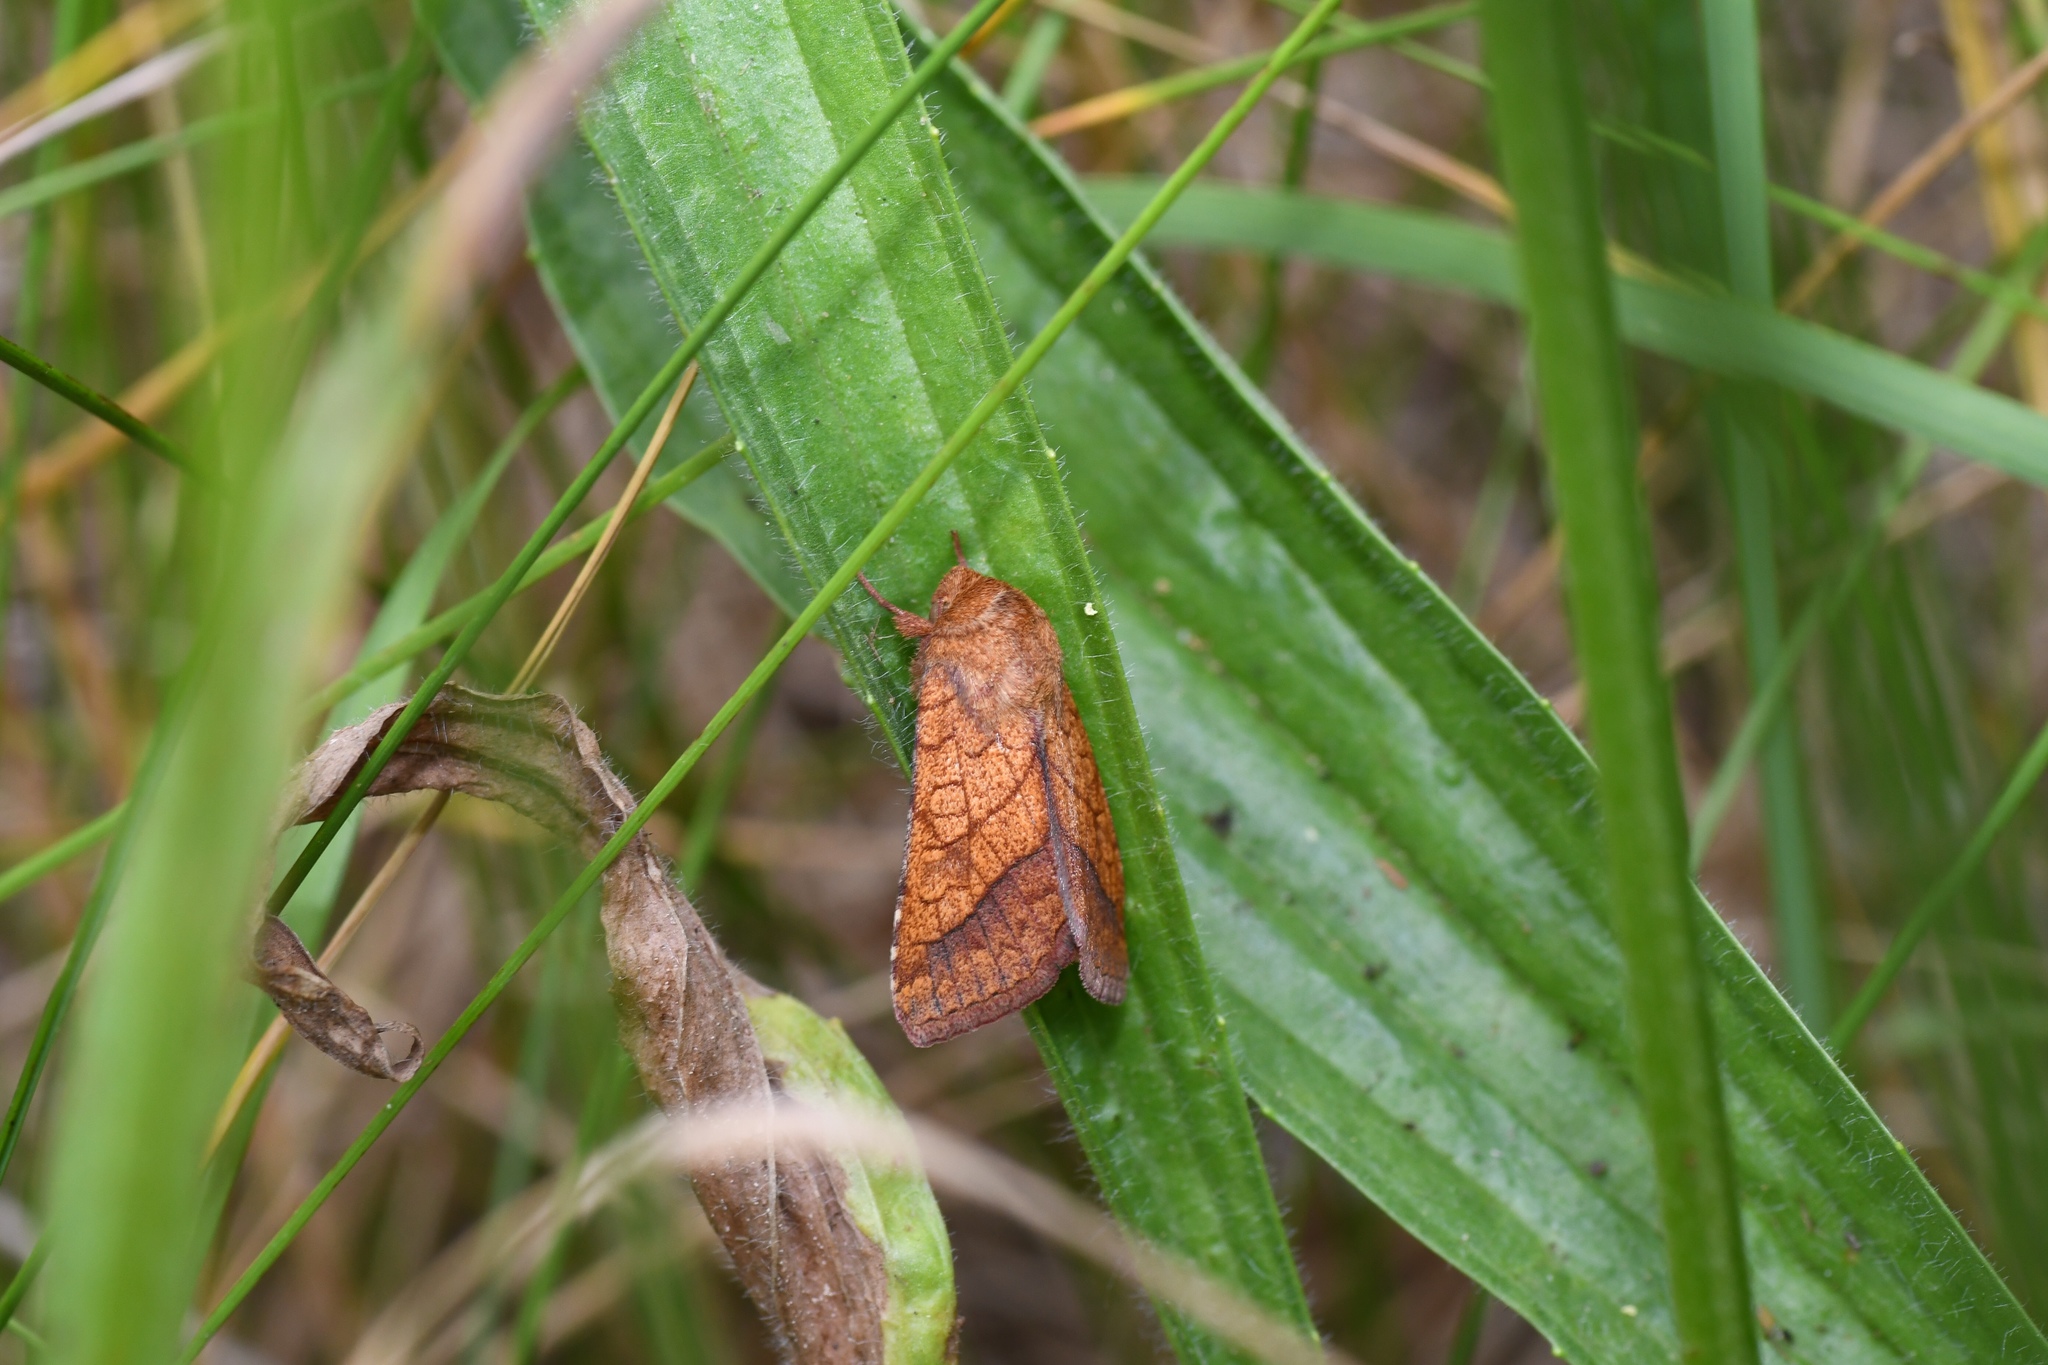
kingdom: Animalia
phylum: Arthropoda
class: Insecta
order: Lepidoptera
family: Noctuidae
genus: Pyrrhia
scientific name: Pyrrhia cilisca
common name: Bordered sallow moth
